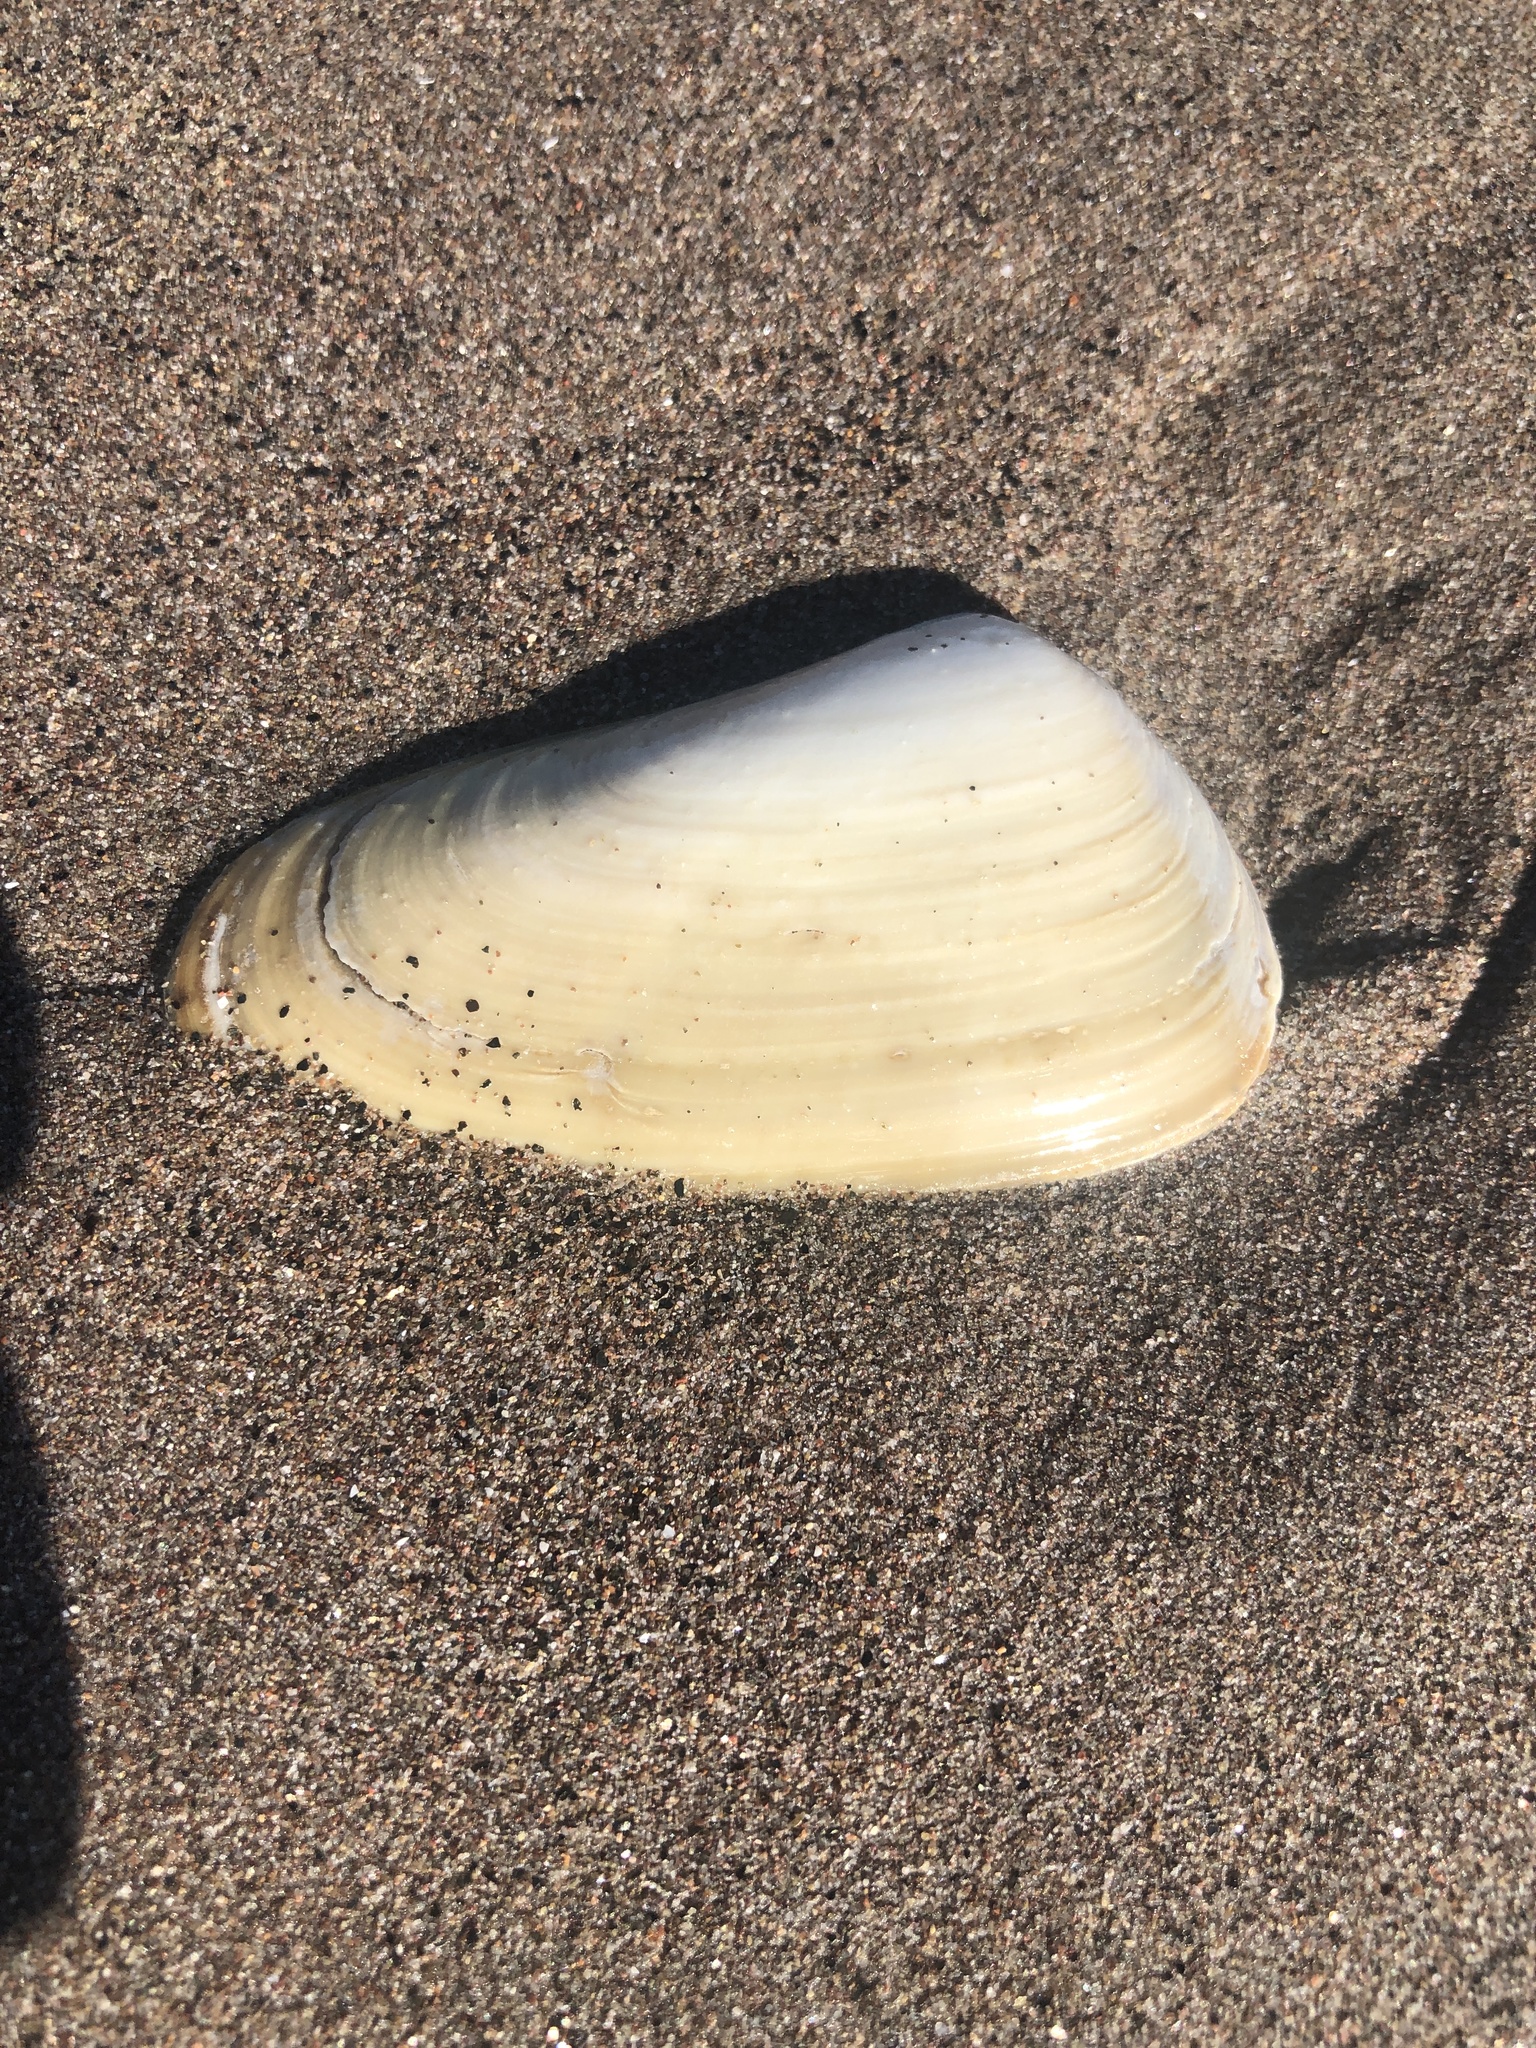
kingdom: Animalia
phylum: Mollusca
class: Bivalvia
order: Venerida
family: Mesodesmatidae
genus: Mesodesma
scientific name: Mesodesma donacium
